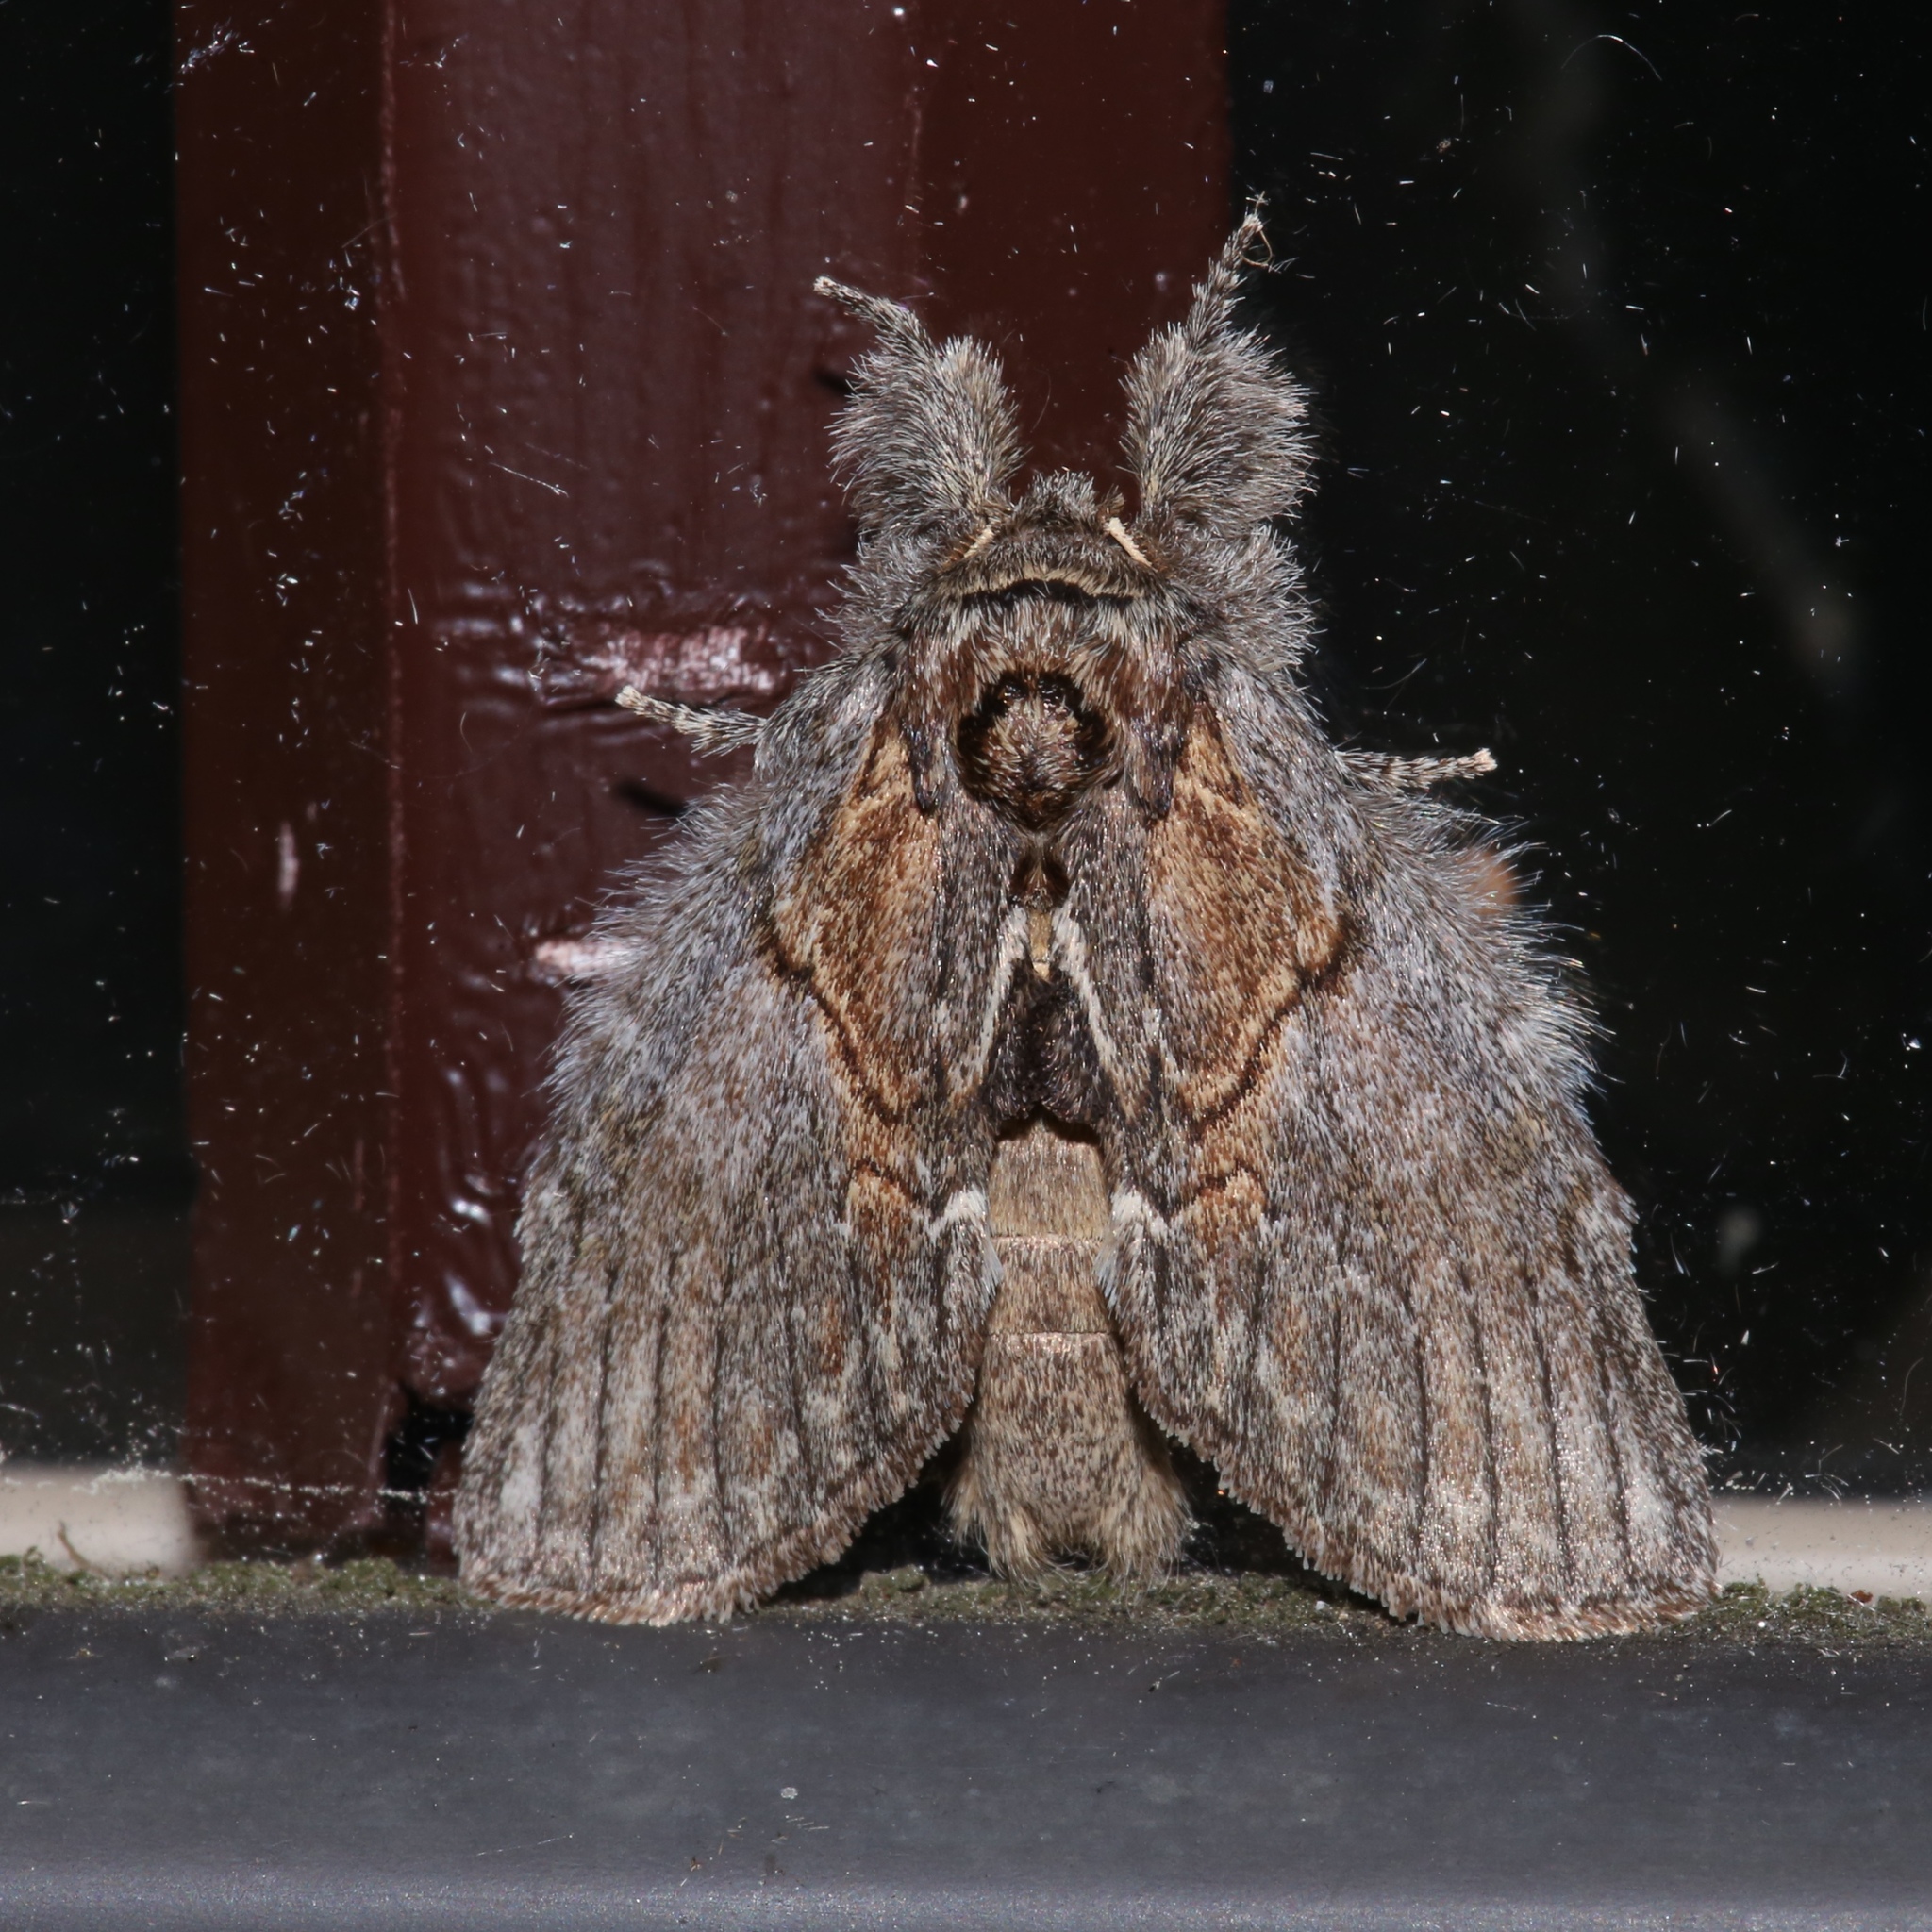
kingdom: Animalia
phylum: Arthropoda
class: Insecta
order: Lepidoptera
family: Notodontidae
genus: Peridea
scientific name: Peridea basitriens
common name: Oval-based prominent
